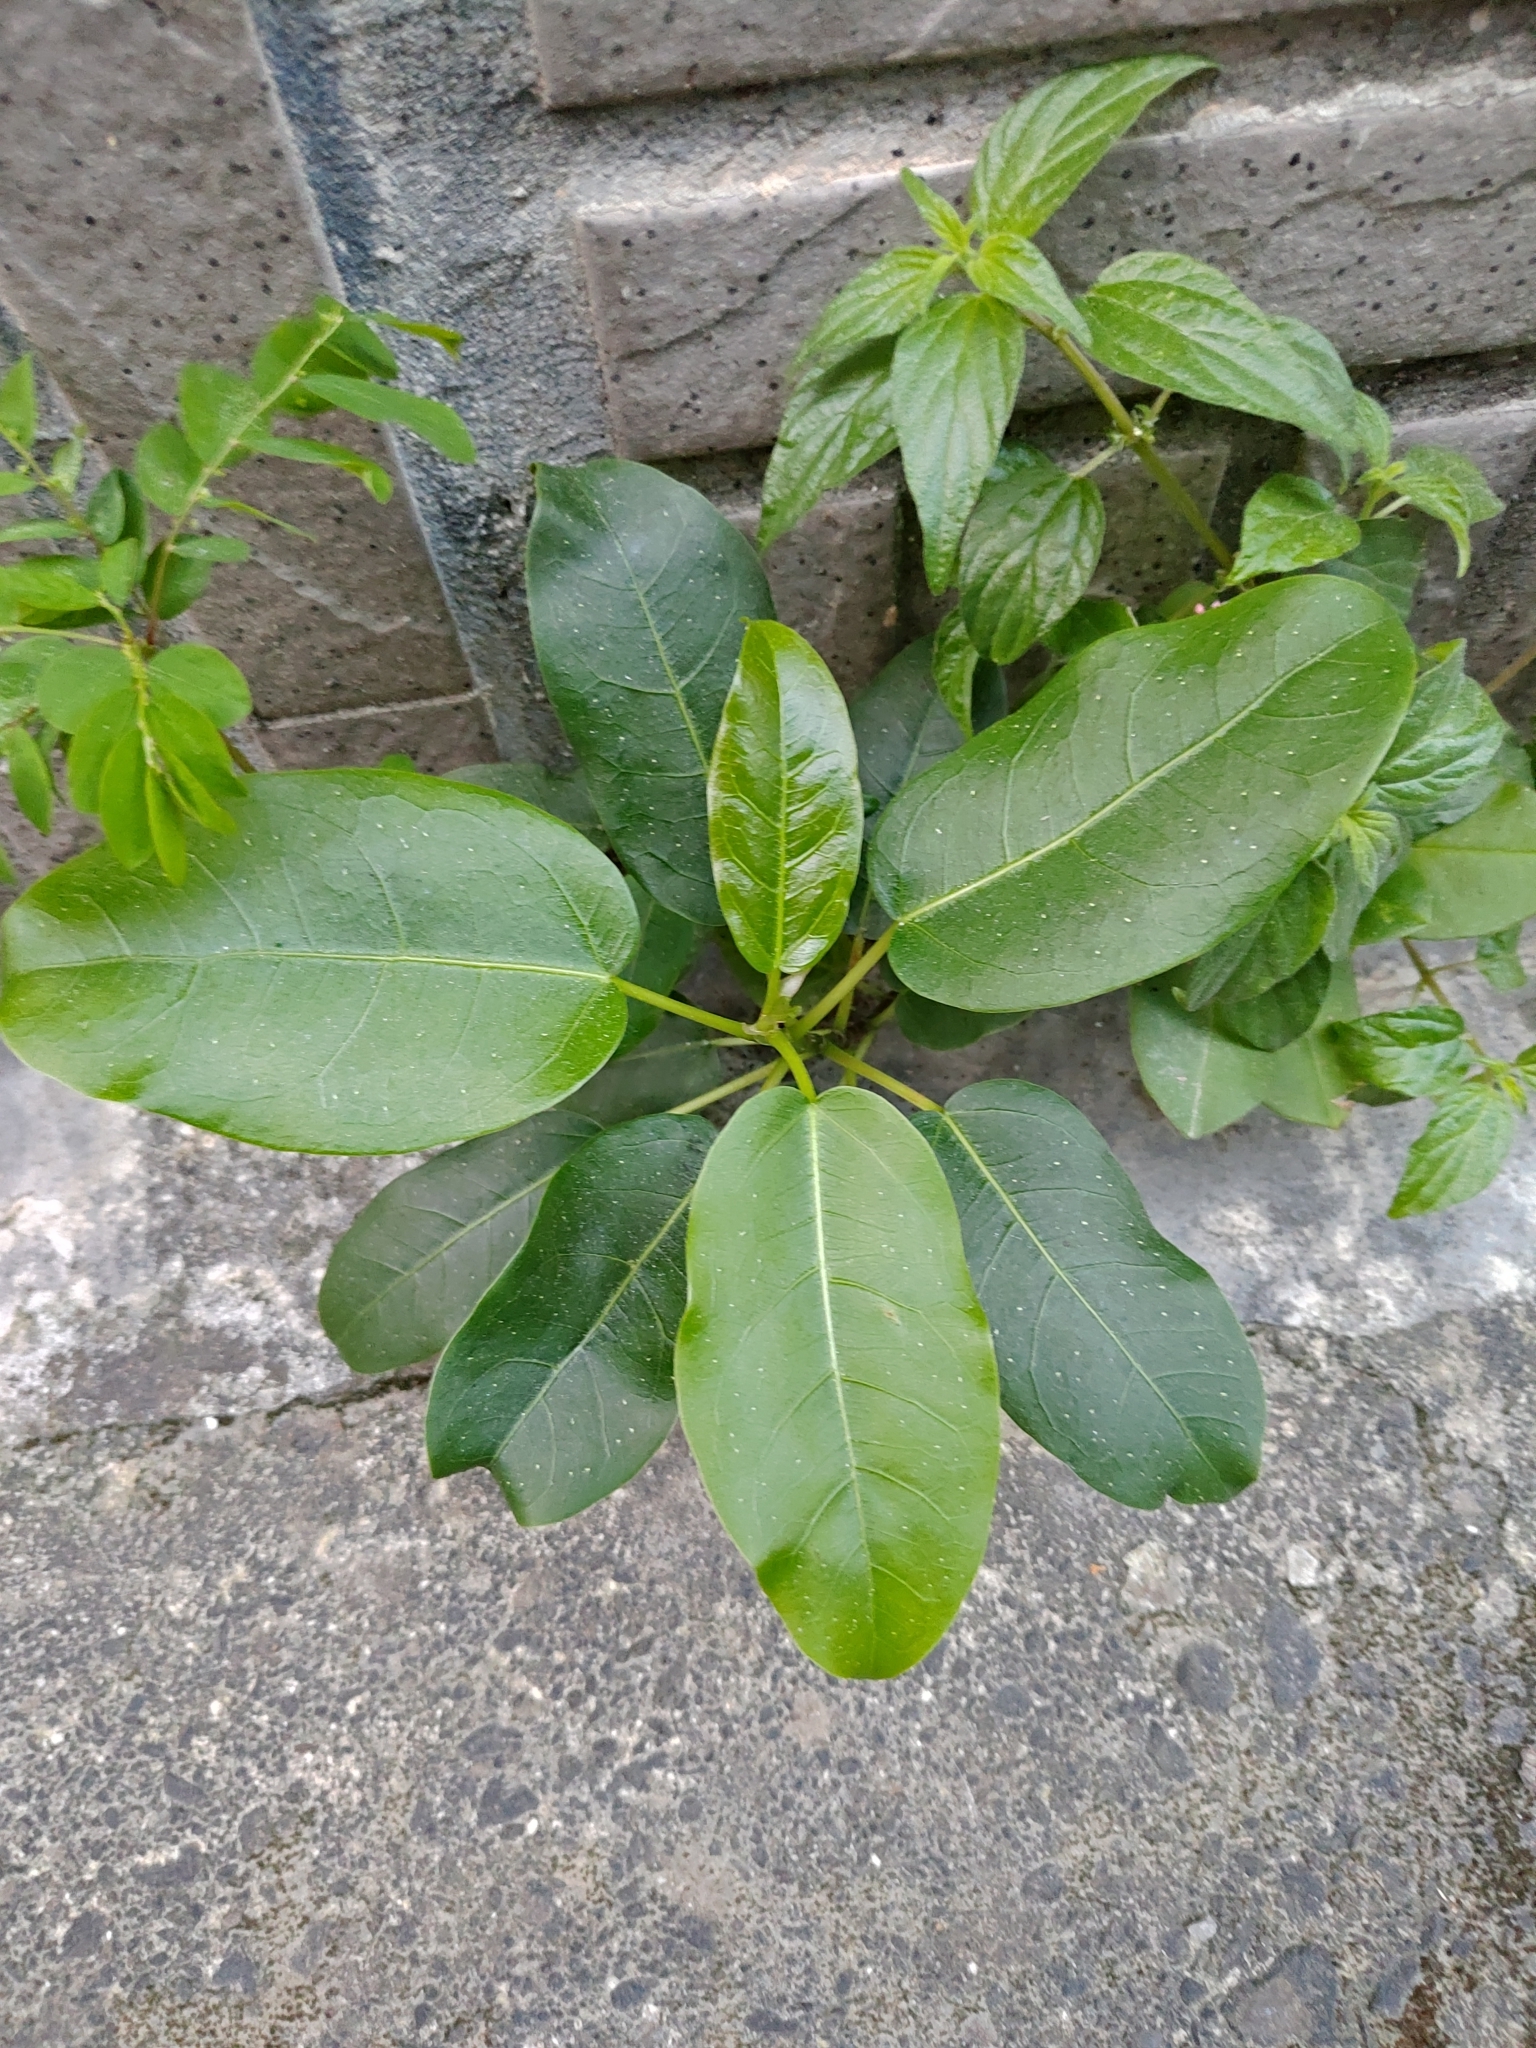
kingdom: Plantae
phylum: Tracheophyta
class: Magnoliopsida
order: Rosales
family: Moraceae
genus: Ficus
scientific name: Ficus subpisocarpa
